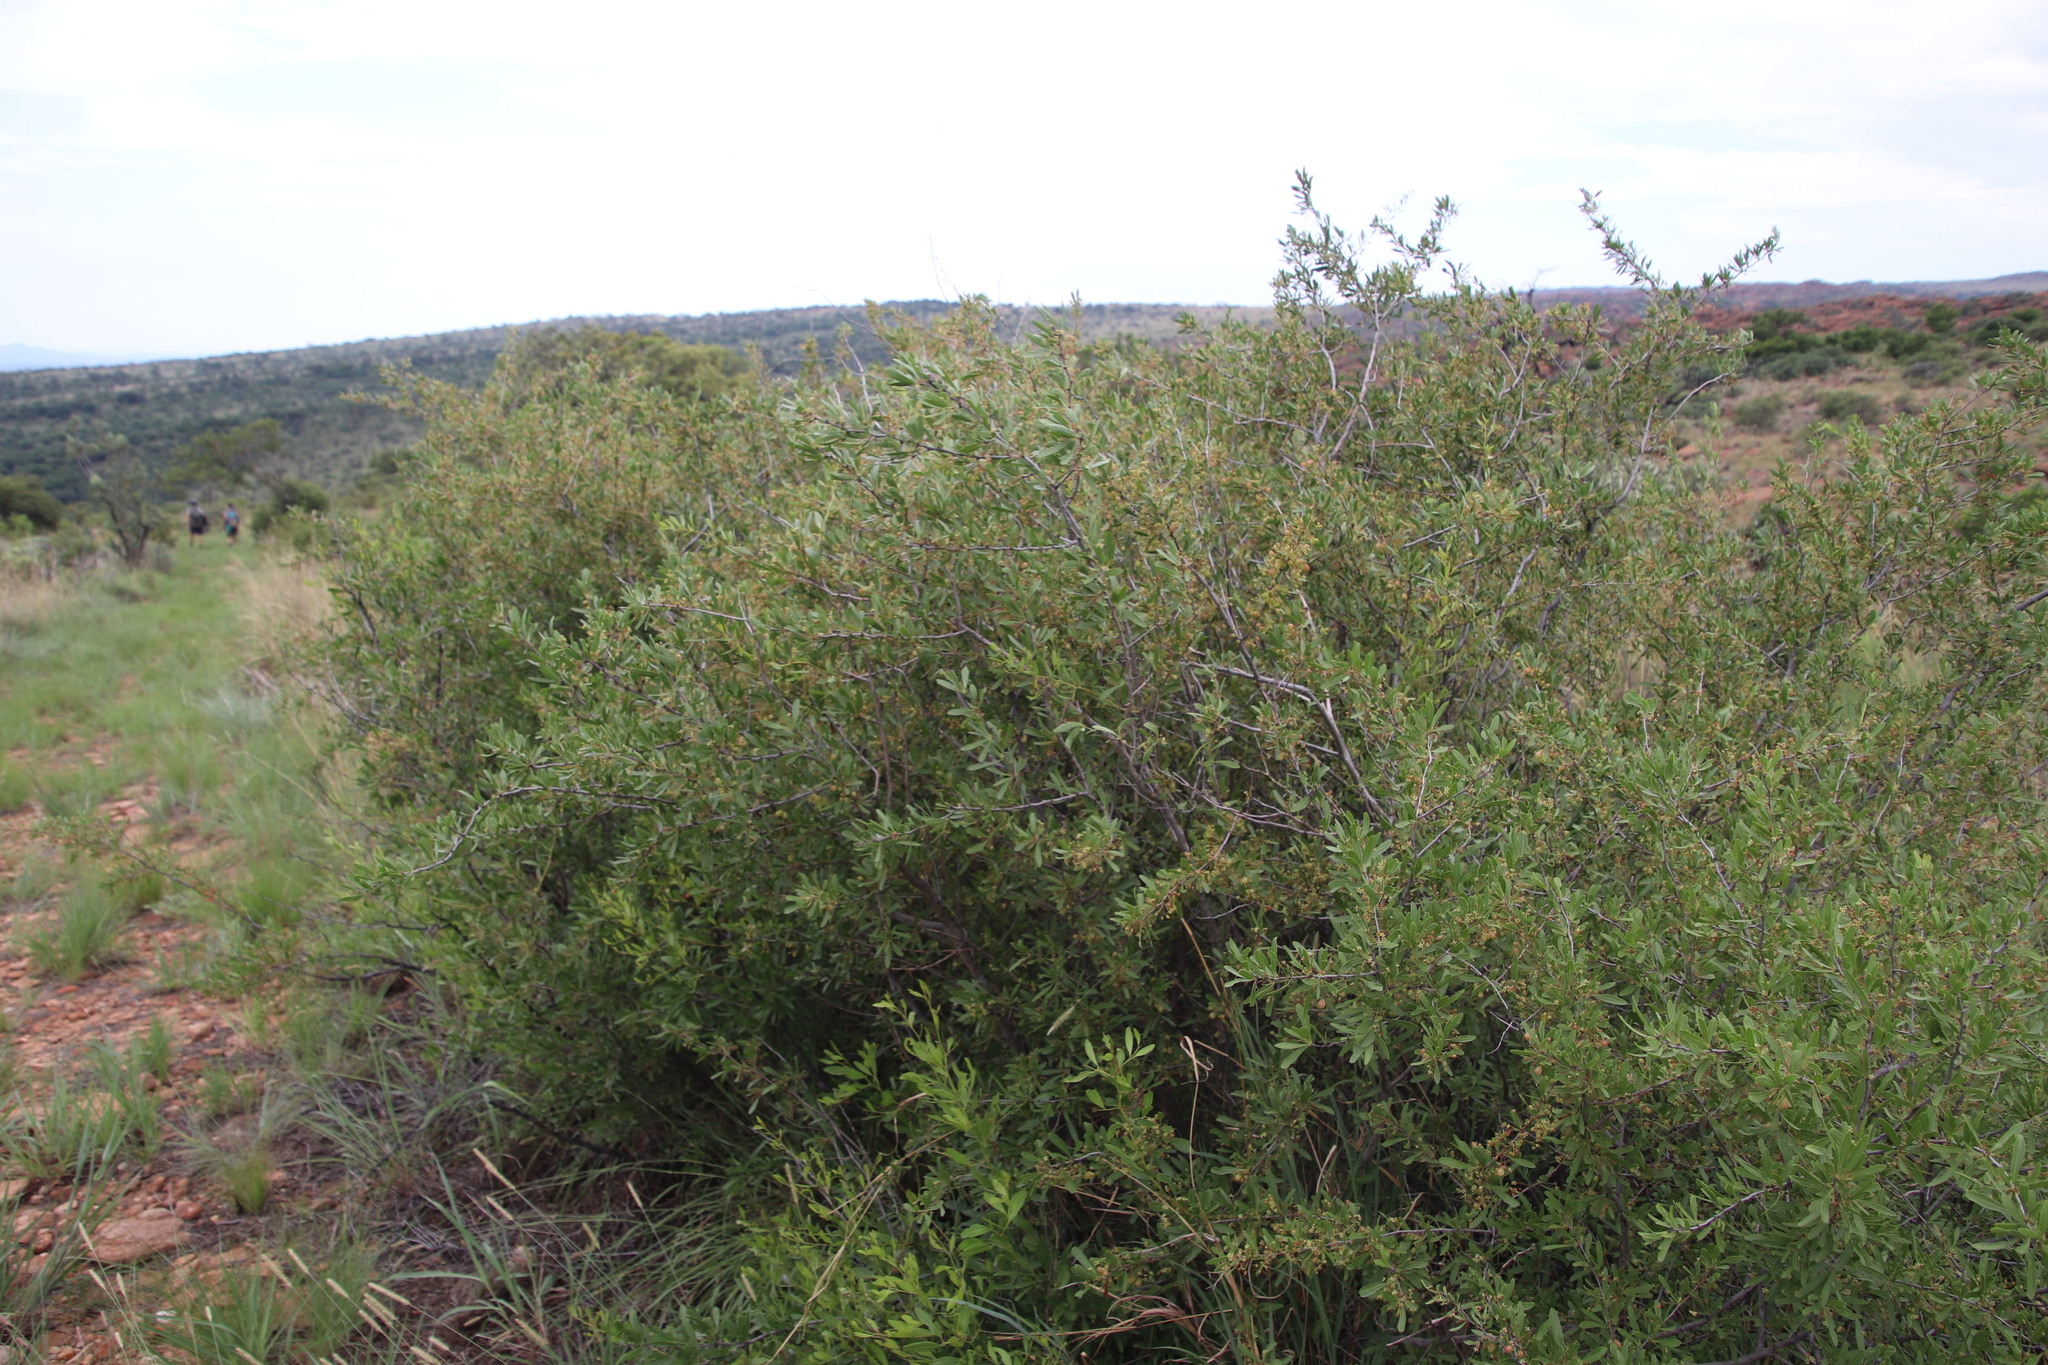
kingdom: Plantae
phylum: Tracheophyta
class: Magnoliopsida
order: Celastrales
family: Celastraceae
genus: Gymnosporia
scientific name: Gymnosporia tenuispina
